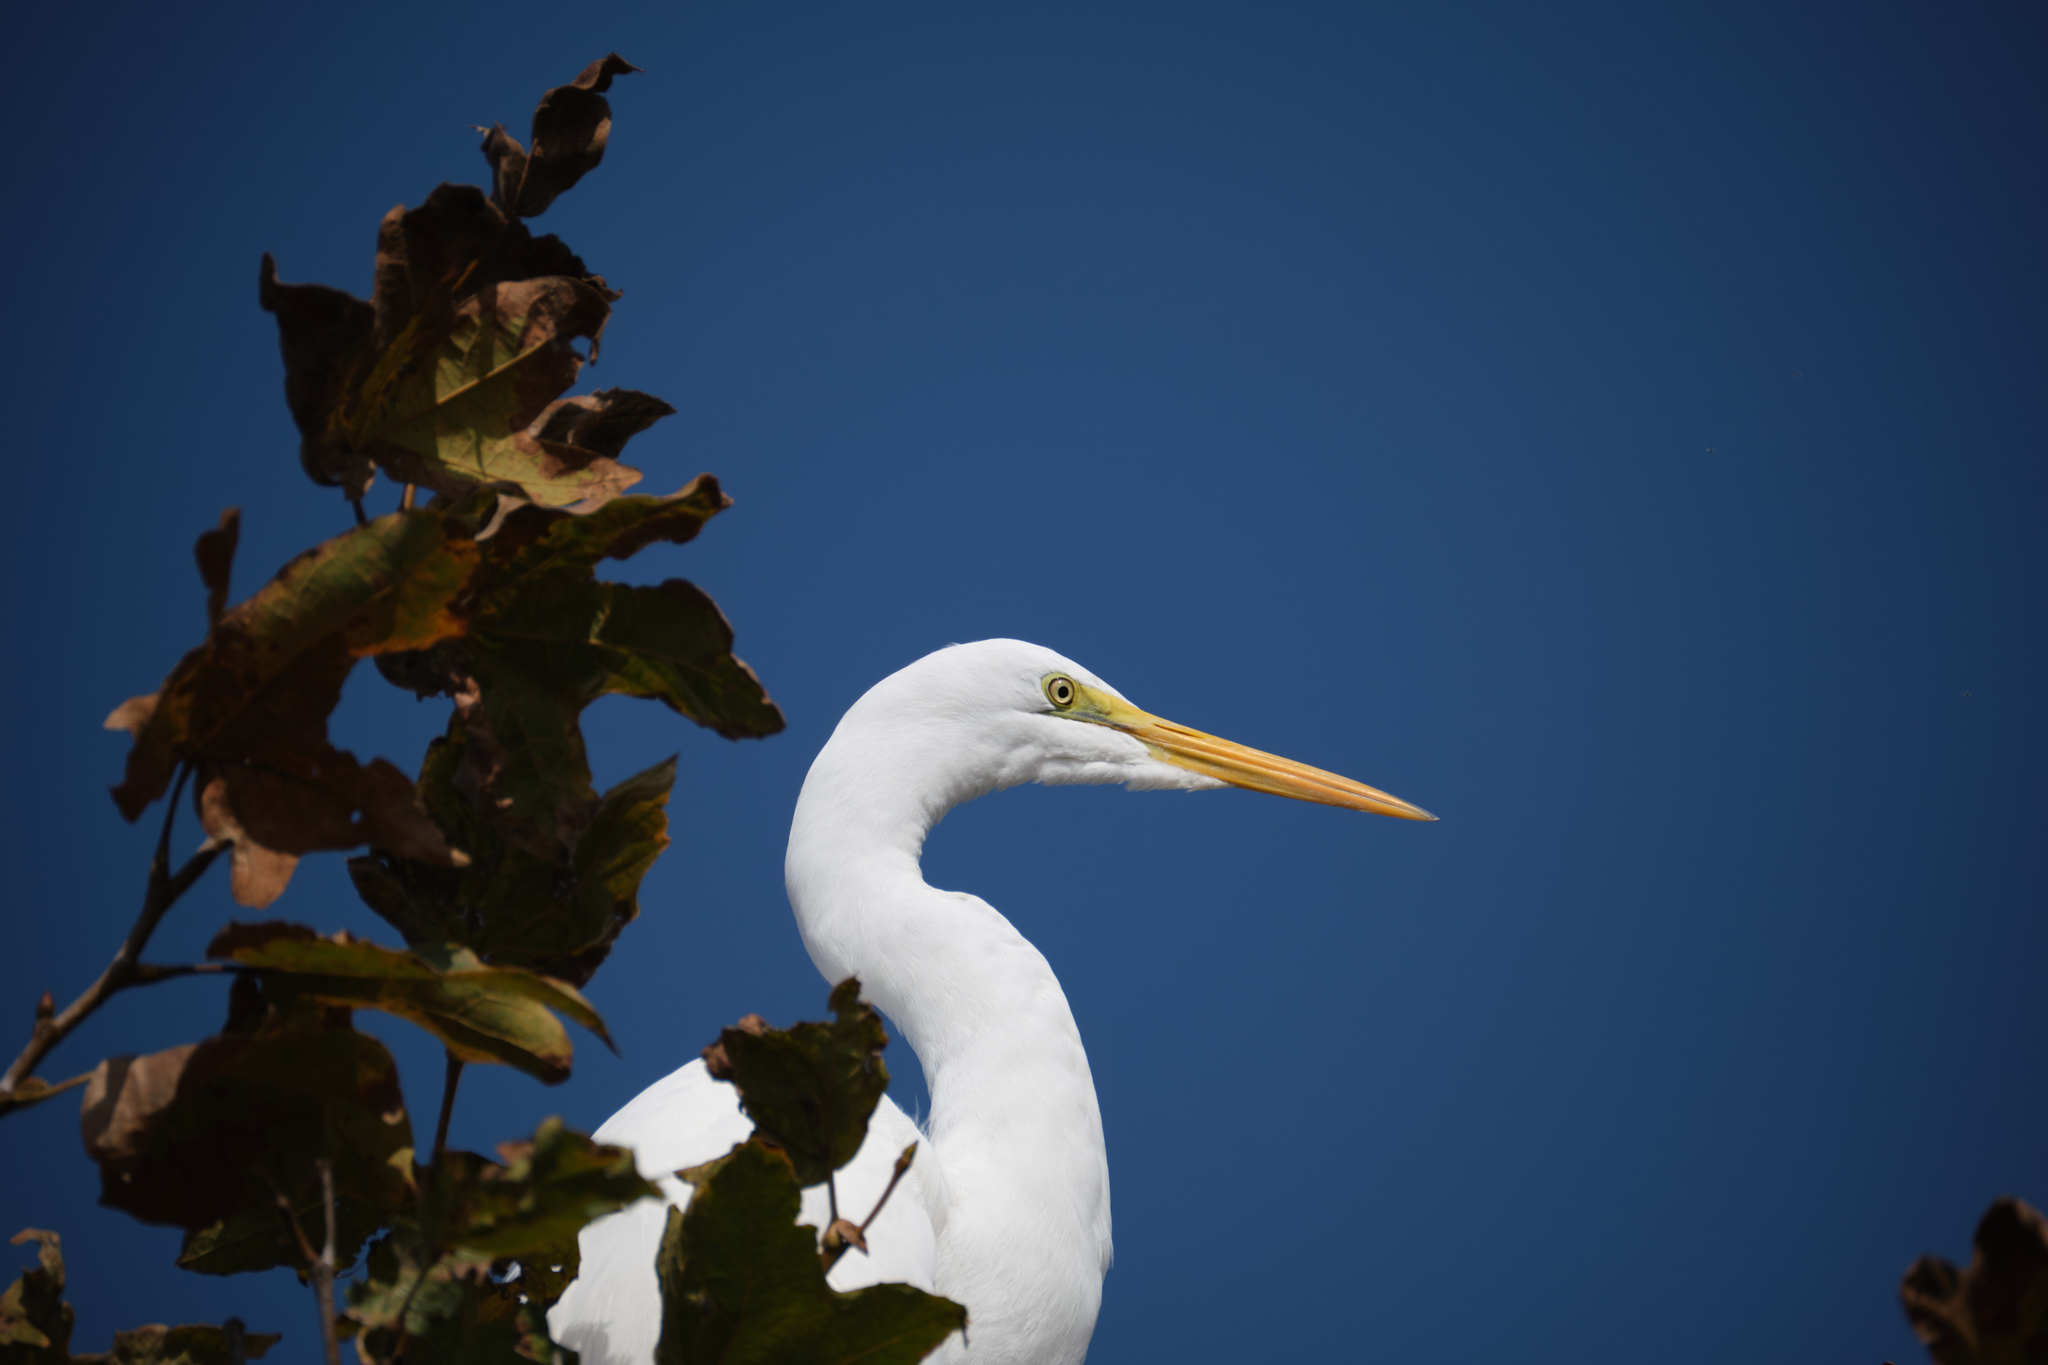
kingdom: Animalia
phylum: Chordata
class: Aves
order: Pelecaniformes
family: Ardeidae
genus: Ardea
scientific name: Ardea alba
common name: Great egret
